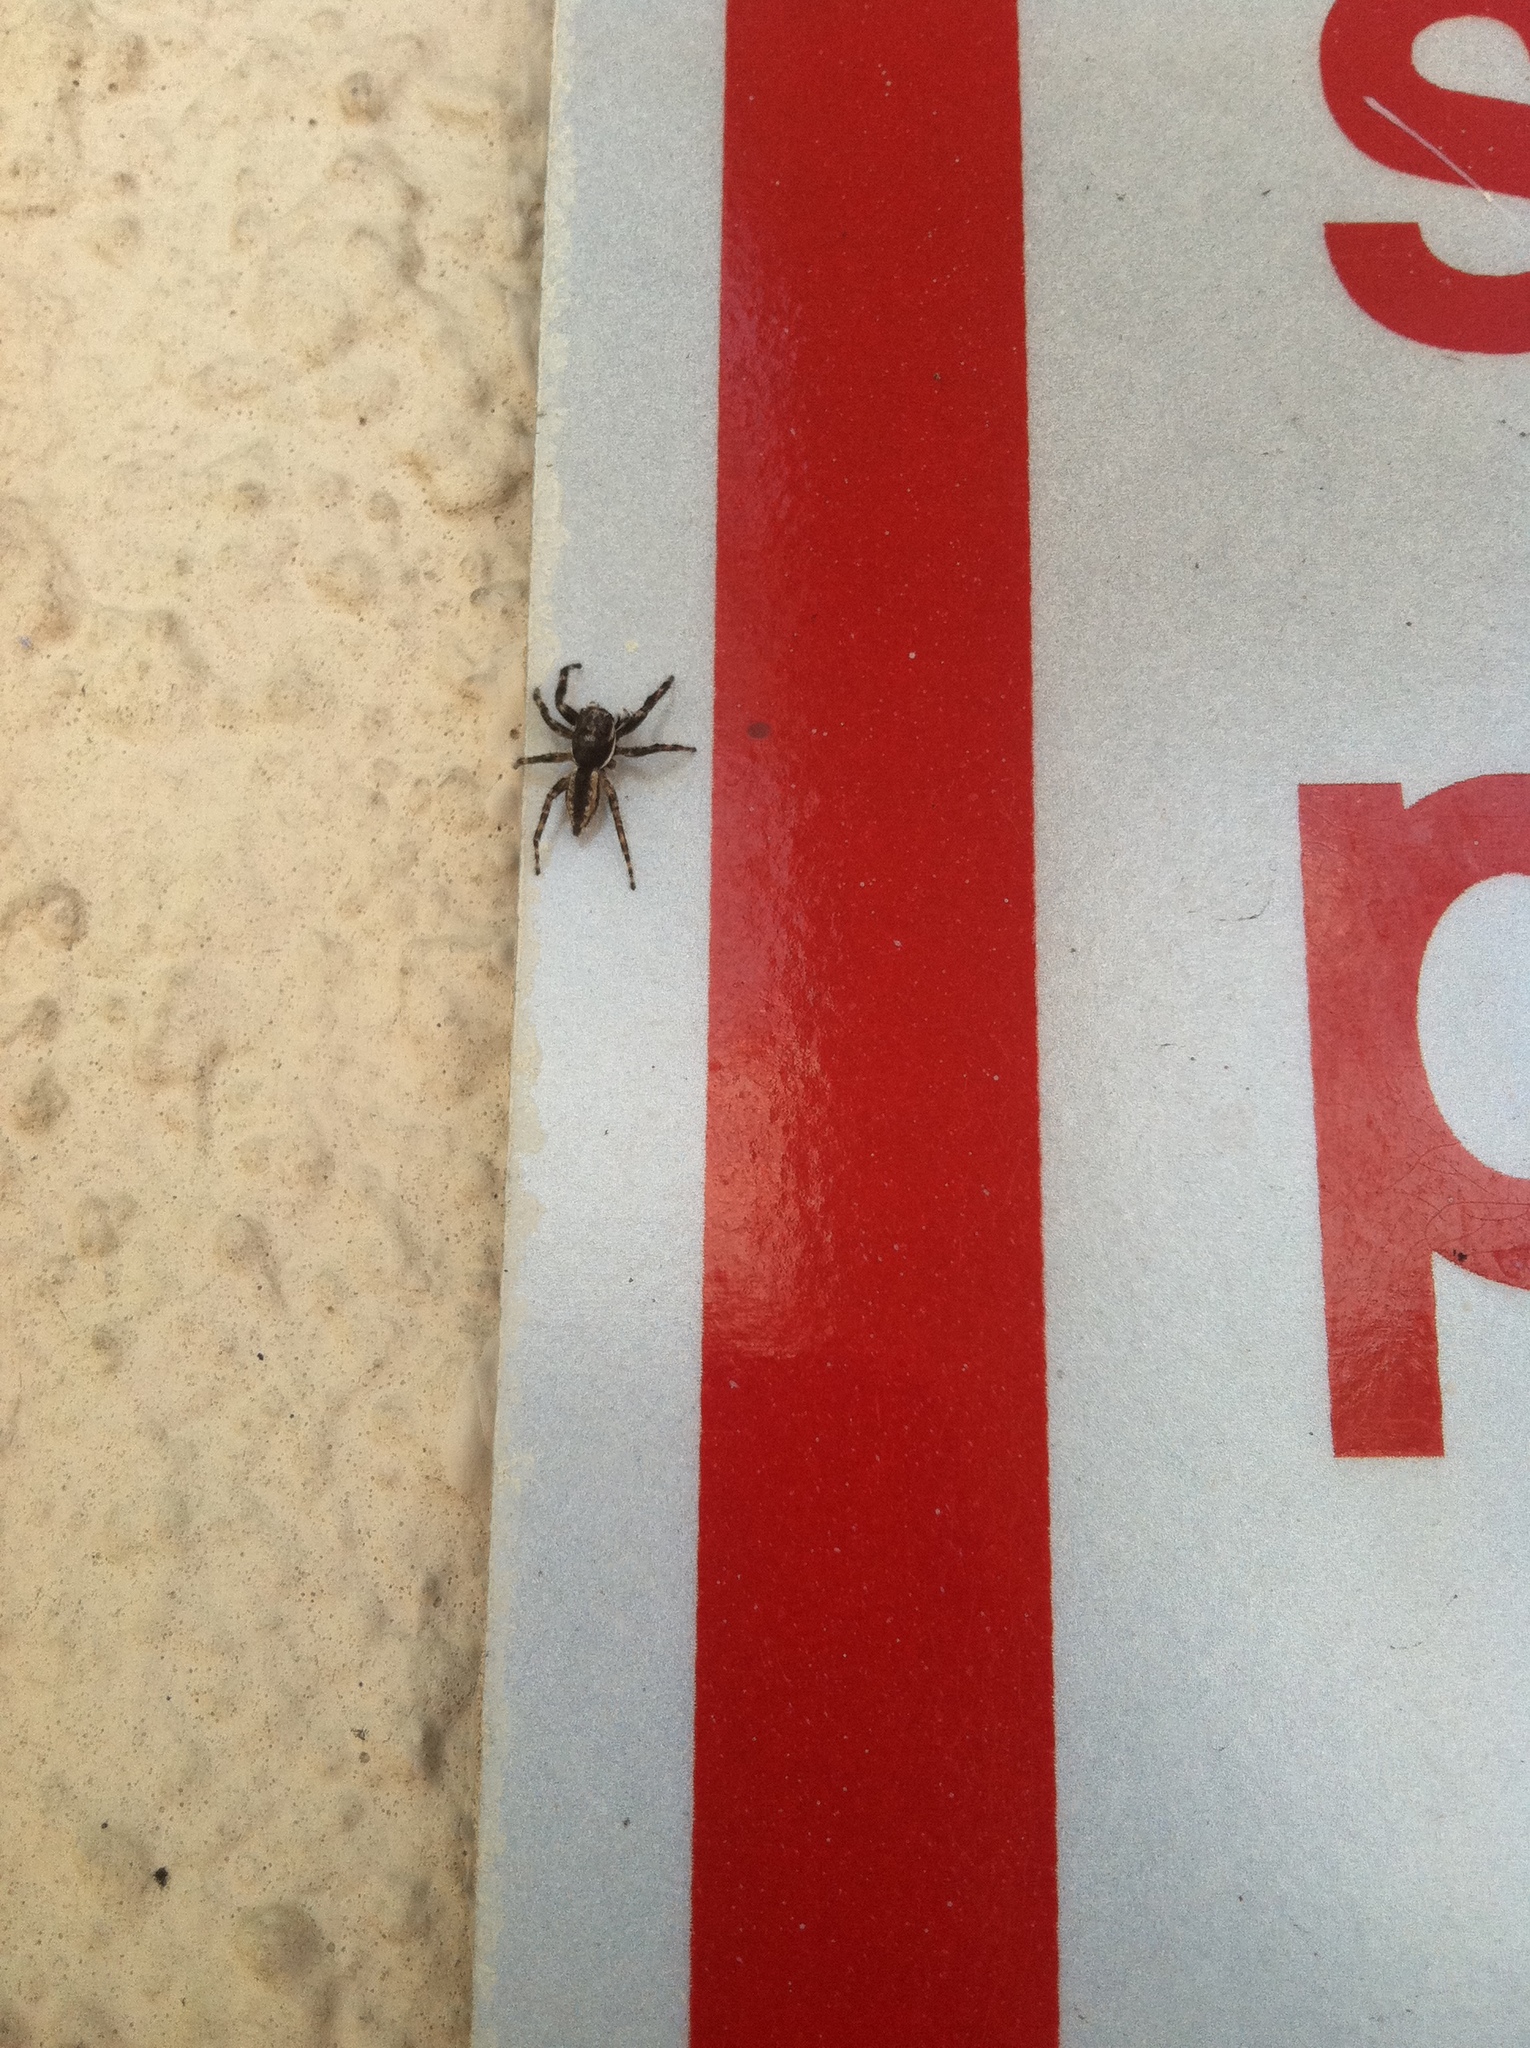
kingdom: Animalia
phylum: Arthropoda
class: Arachnida
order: Araneae
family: Salticidae
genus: Menemerus
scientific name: Menemerus bivittatus
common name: Gray wall jumper
